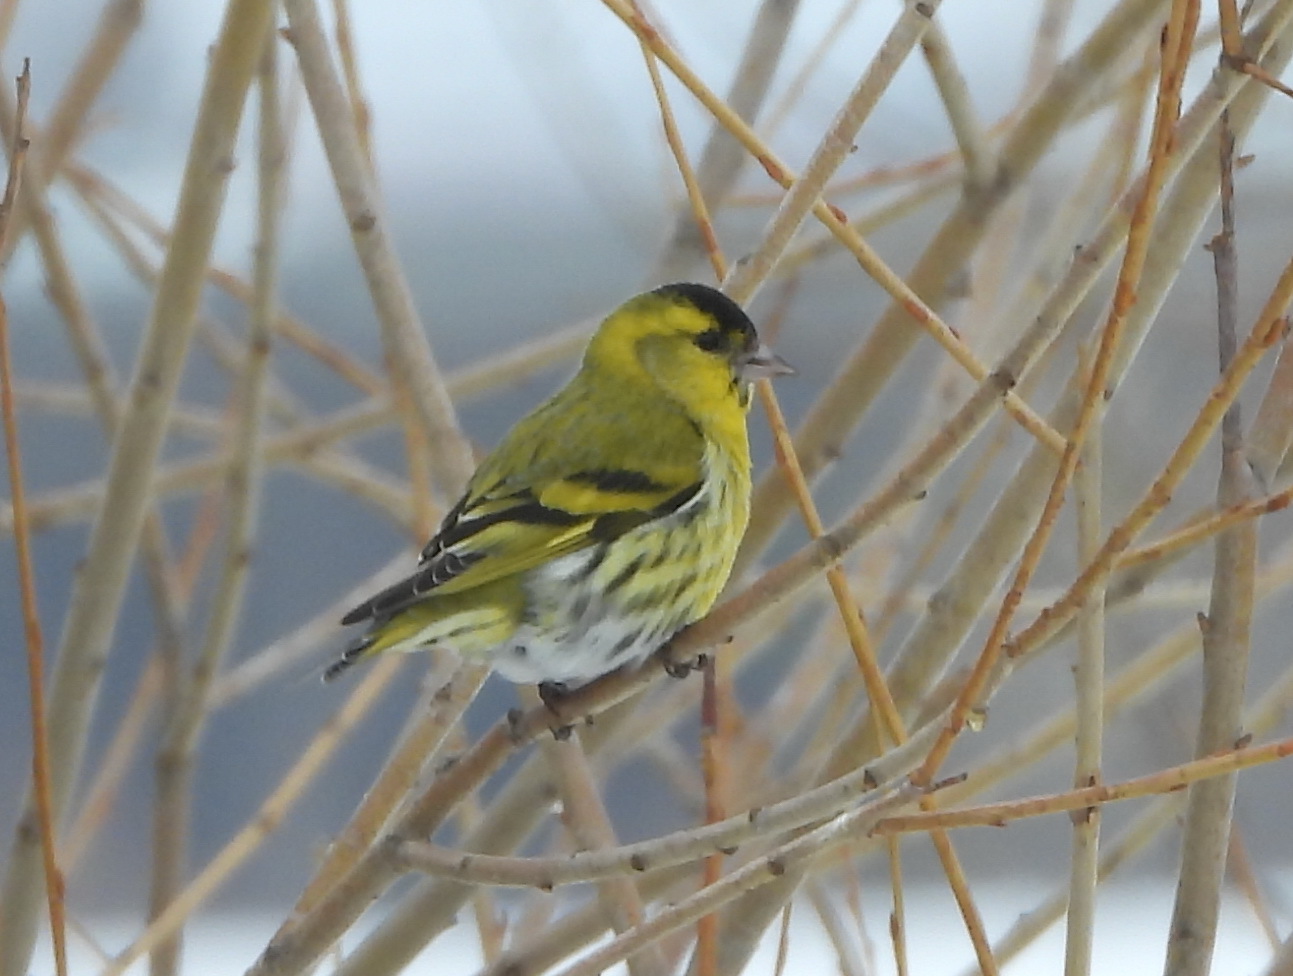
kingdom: Animalia
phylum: Chordata
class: Aves
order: Passeriformes
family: Fringillidae
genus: Spinus
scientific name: Spinus spinus
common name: Eurasian siskin
